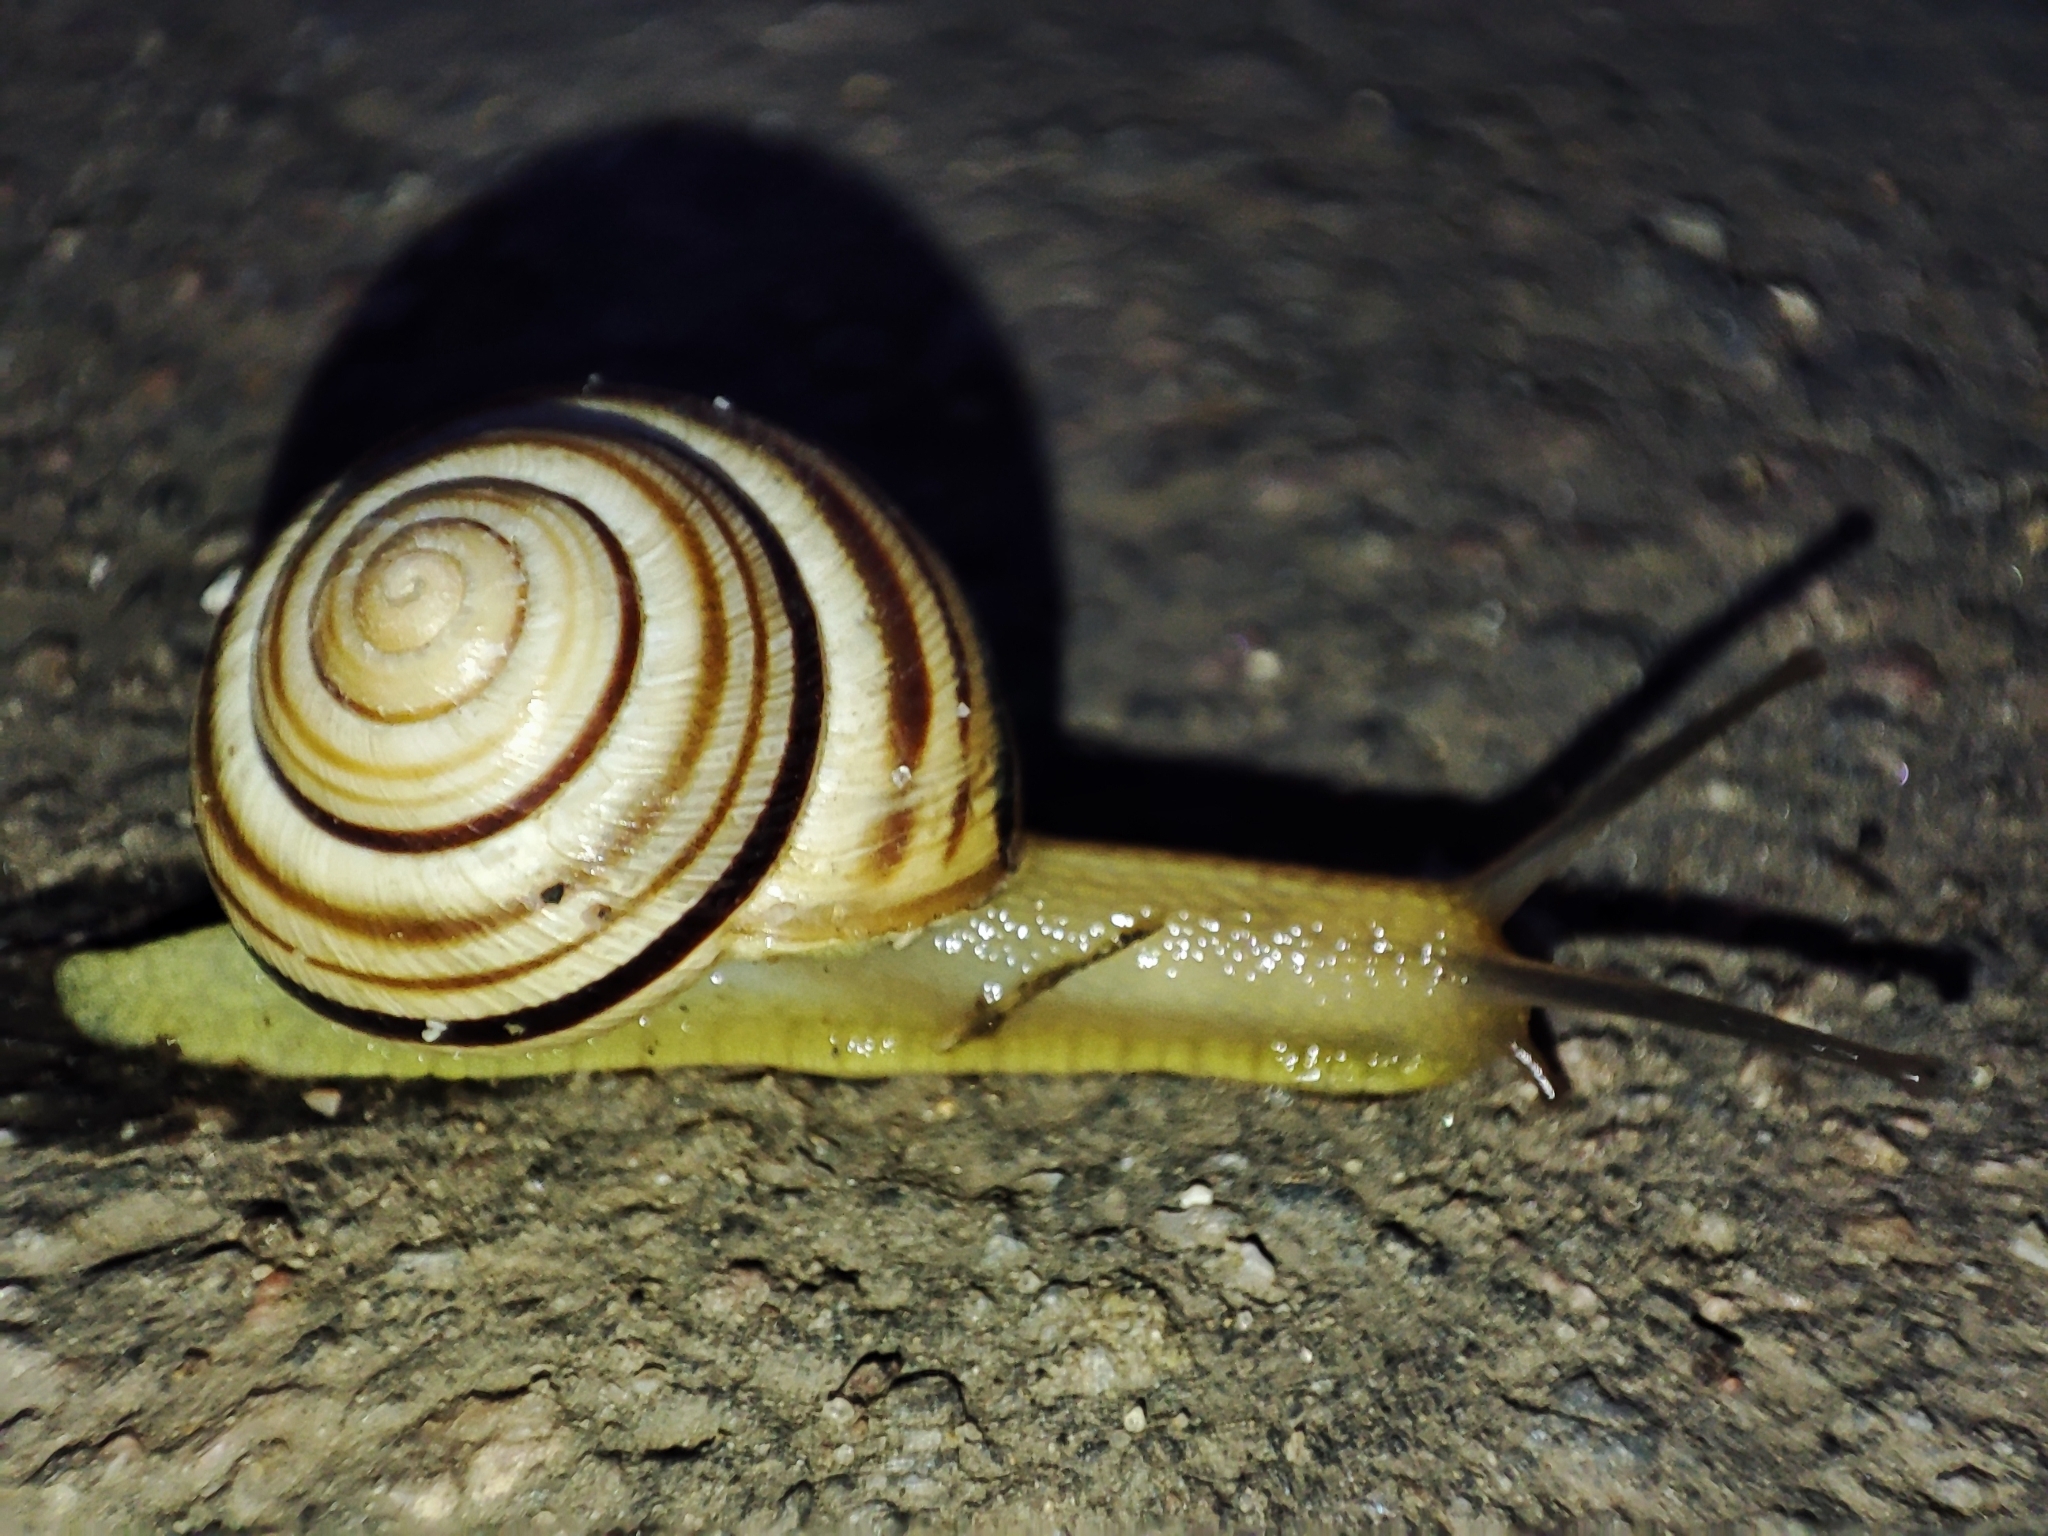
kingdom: Animalia
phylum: Mollusca
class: Gastropoda
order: Stylommatophora
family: Helicidae
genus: Caucasotachea
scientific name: Caucasotachea vindobonensis
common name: European helicid land snail
